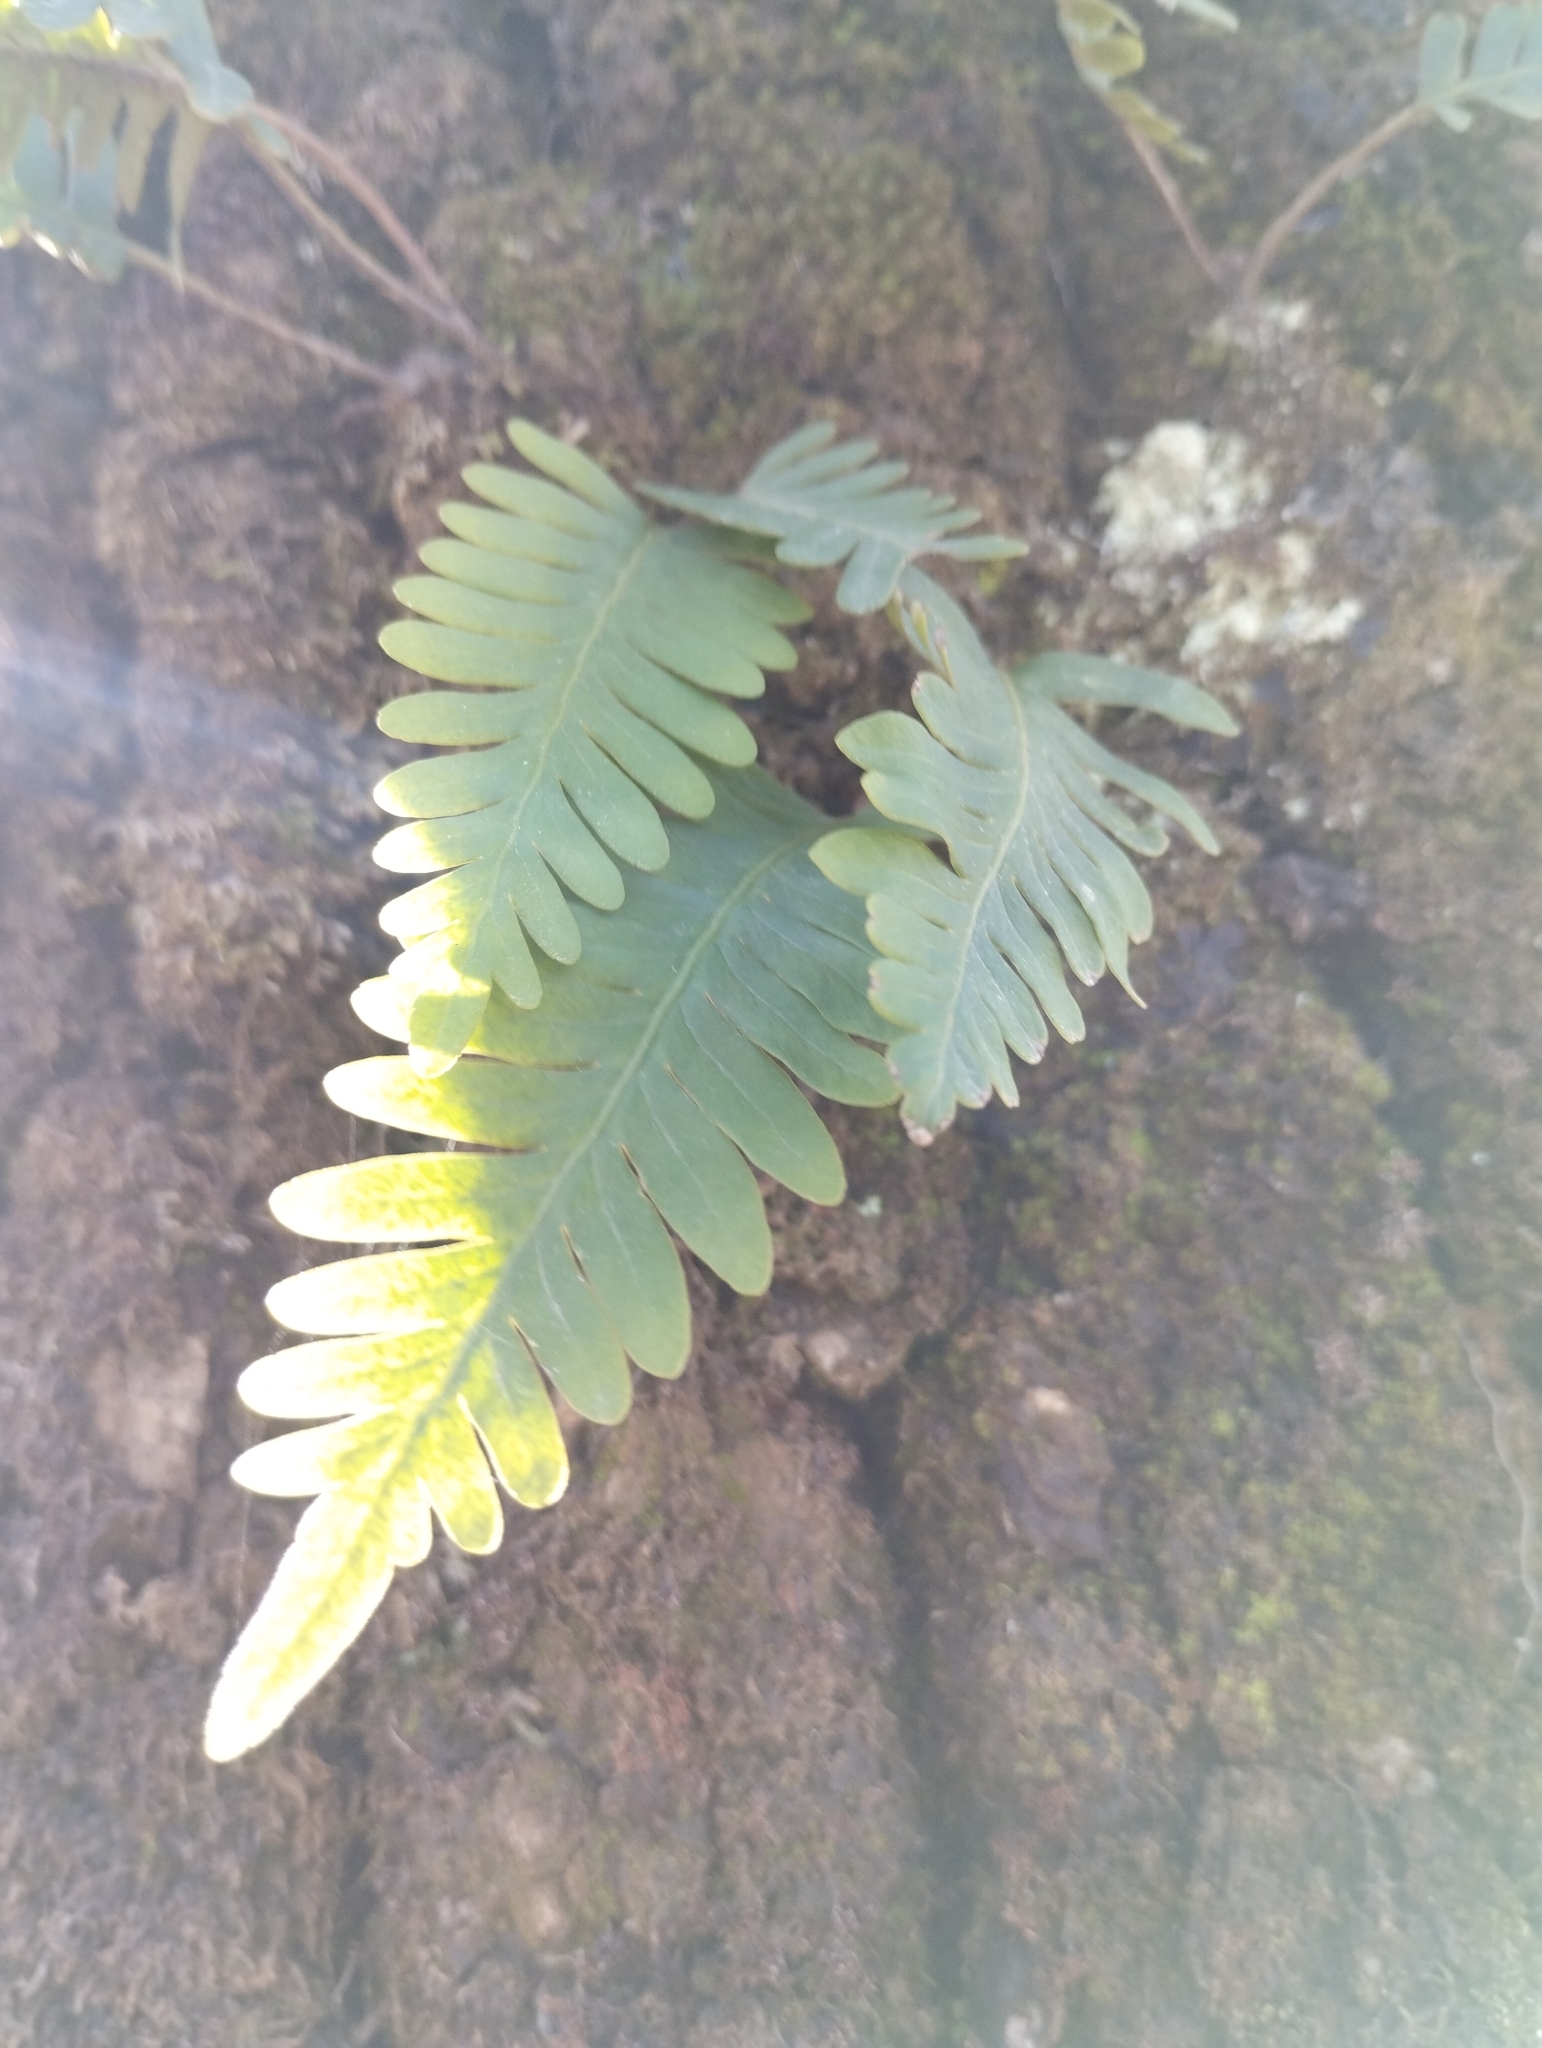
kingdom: Plantae
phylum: Tracheophyta
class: Polypodiopsida
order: Polypodiales
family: Polypodiaceae
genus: Pleopeltis
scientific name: Pleopeltis pinnatifida
